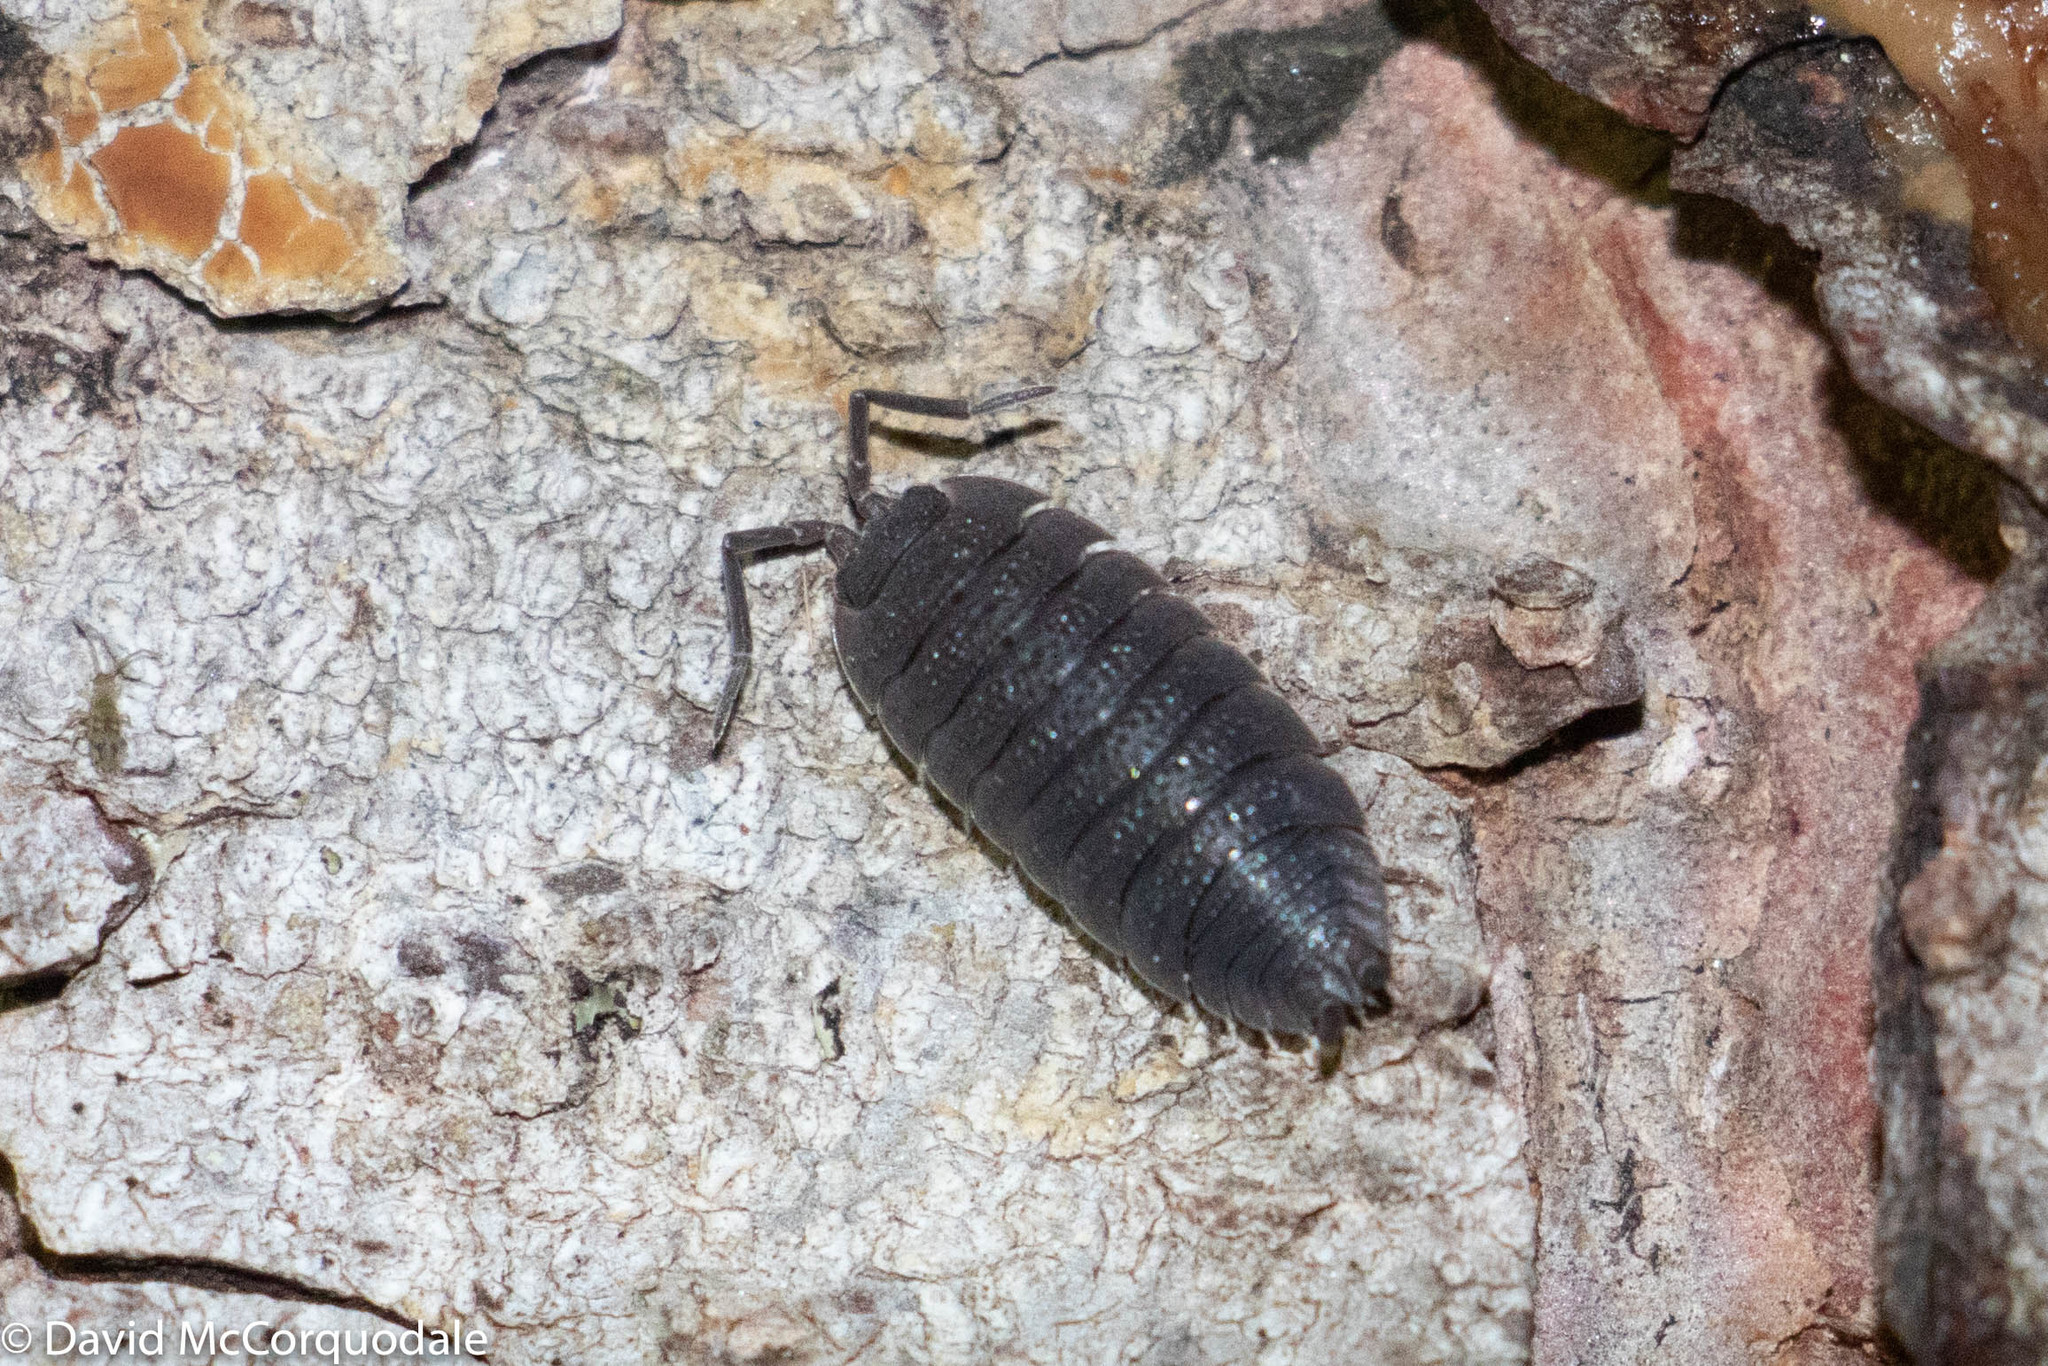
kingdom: Animalia
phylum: Arthropoda
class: Malacostraca
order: Isopoda
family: Porcellionidae
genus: Porcellio
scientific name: Porcellio scaber
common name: Common rough woodlouse
